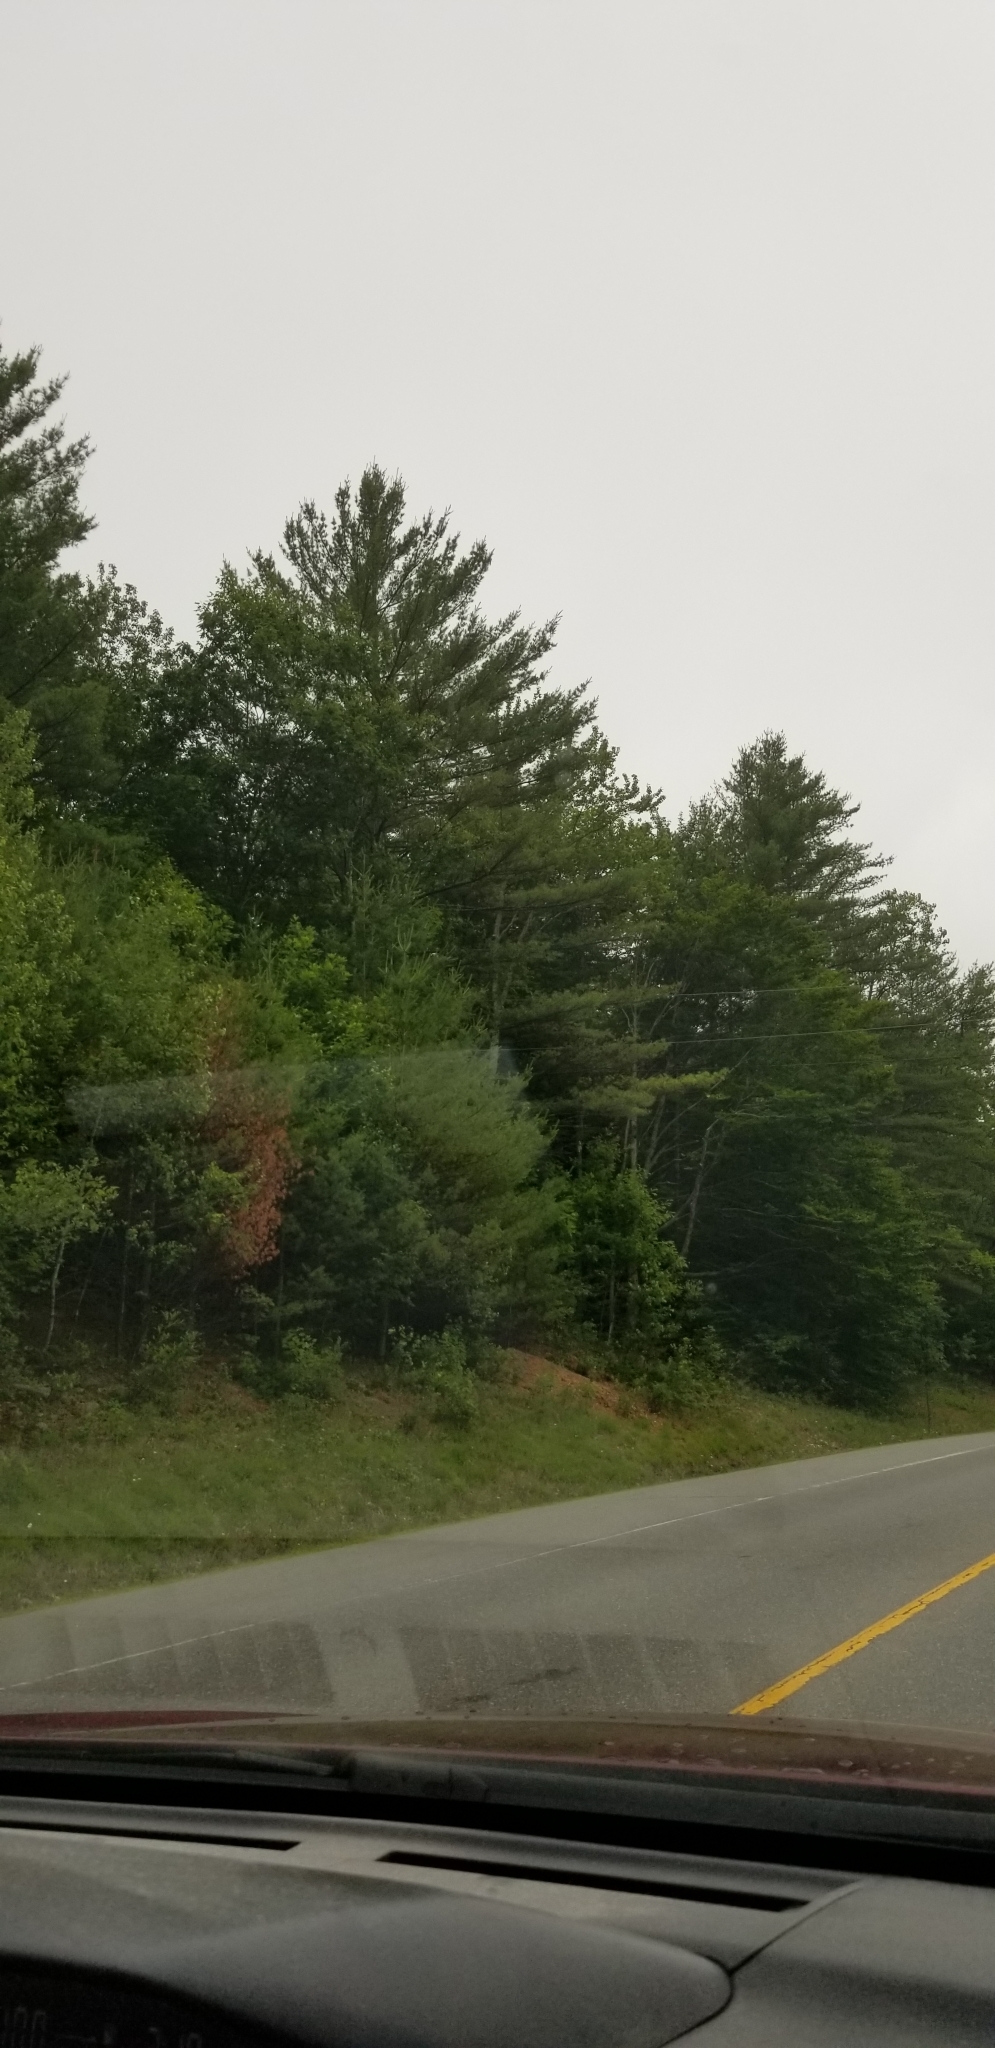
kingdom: Plantae
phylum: Tracheophyta
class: Pinopsida
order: Pinales
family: Pinaceae
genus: Pinus
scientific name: Pinus strobus
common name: Weymouth pine
